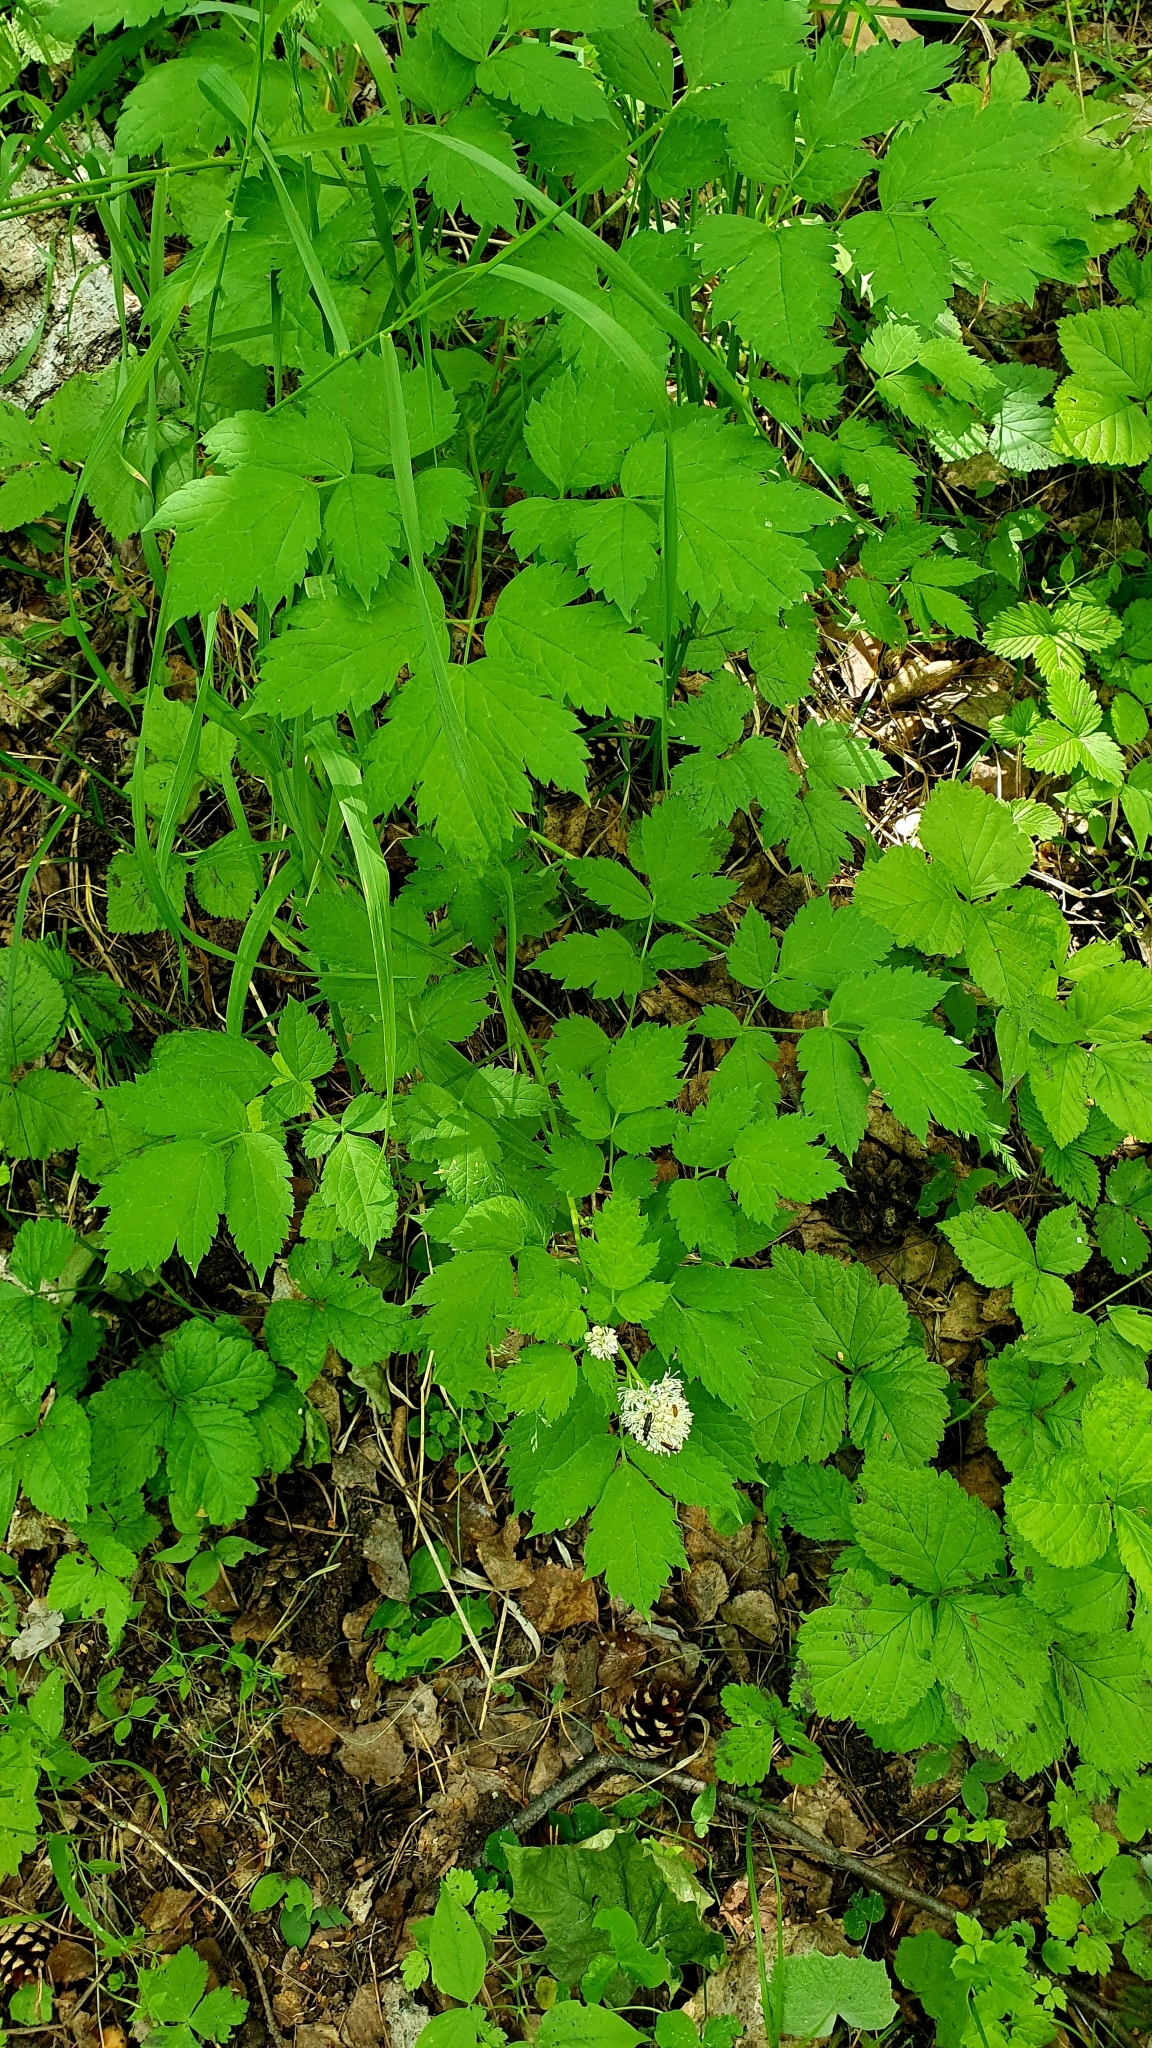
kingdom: Plantae
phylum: Tracheophyta
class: Magnoliopsida
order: Ranunculales
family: Ranunculaceae
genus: Actaea
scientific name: Actaea spicata
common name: Baneberry
